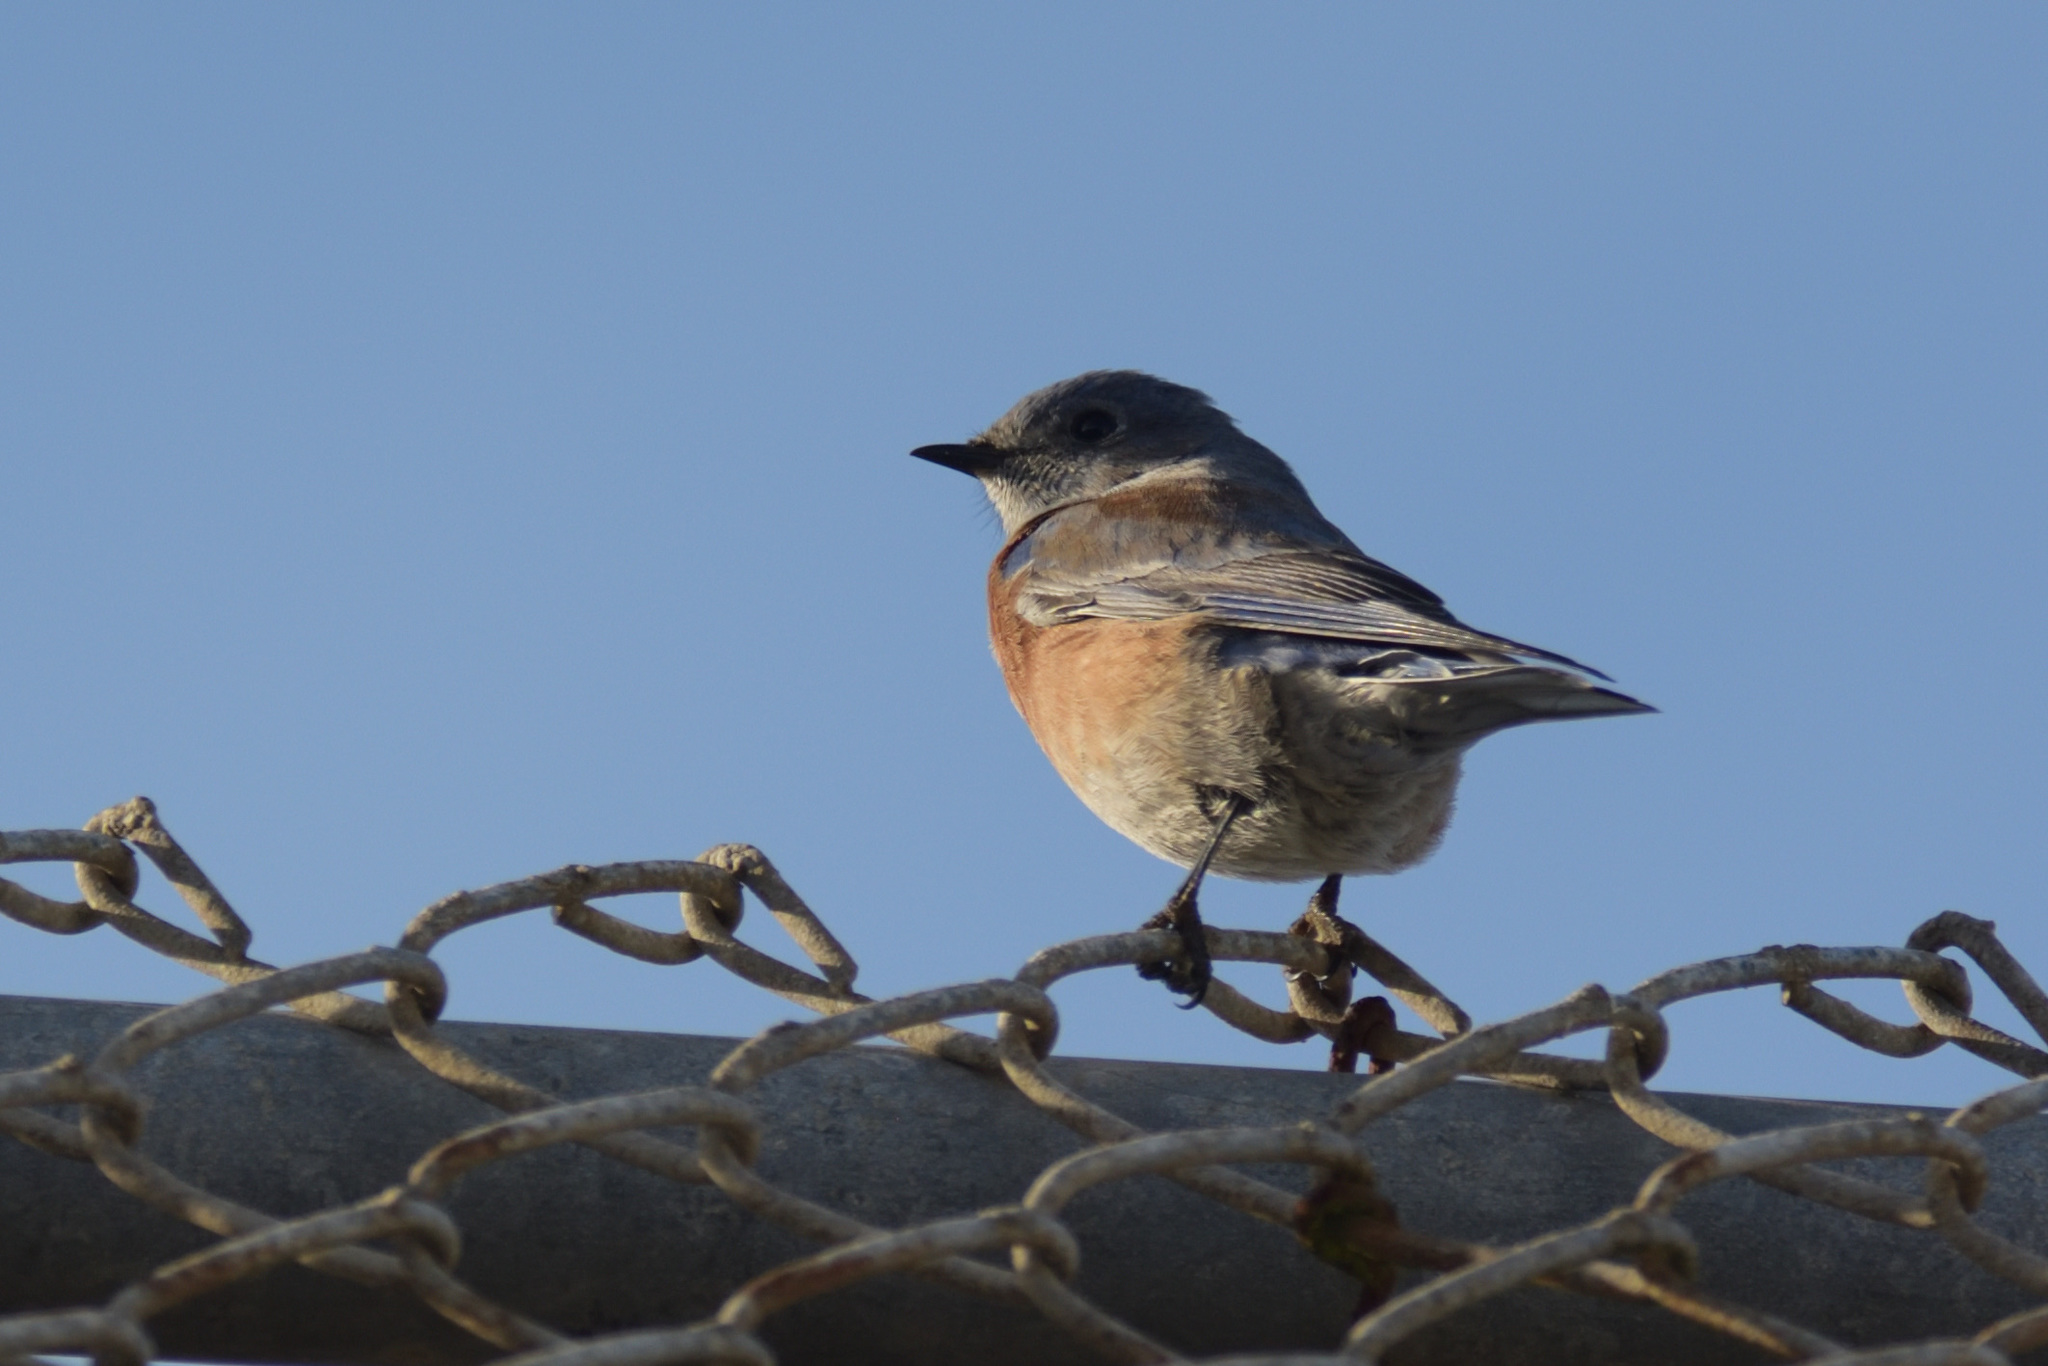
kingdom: Animalia
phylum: Chordata
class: Aves
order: Passeriformes
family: Turdidae
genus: Sialia
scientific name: Sialia mexicana
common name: Western bluebird
